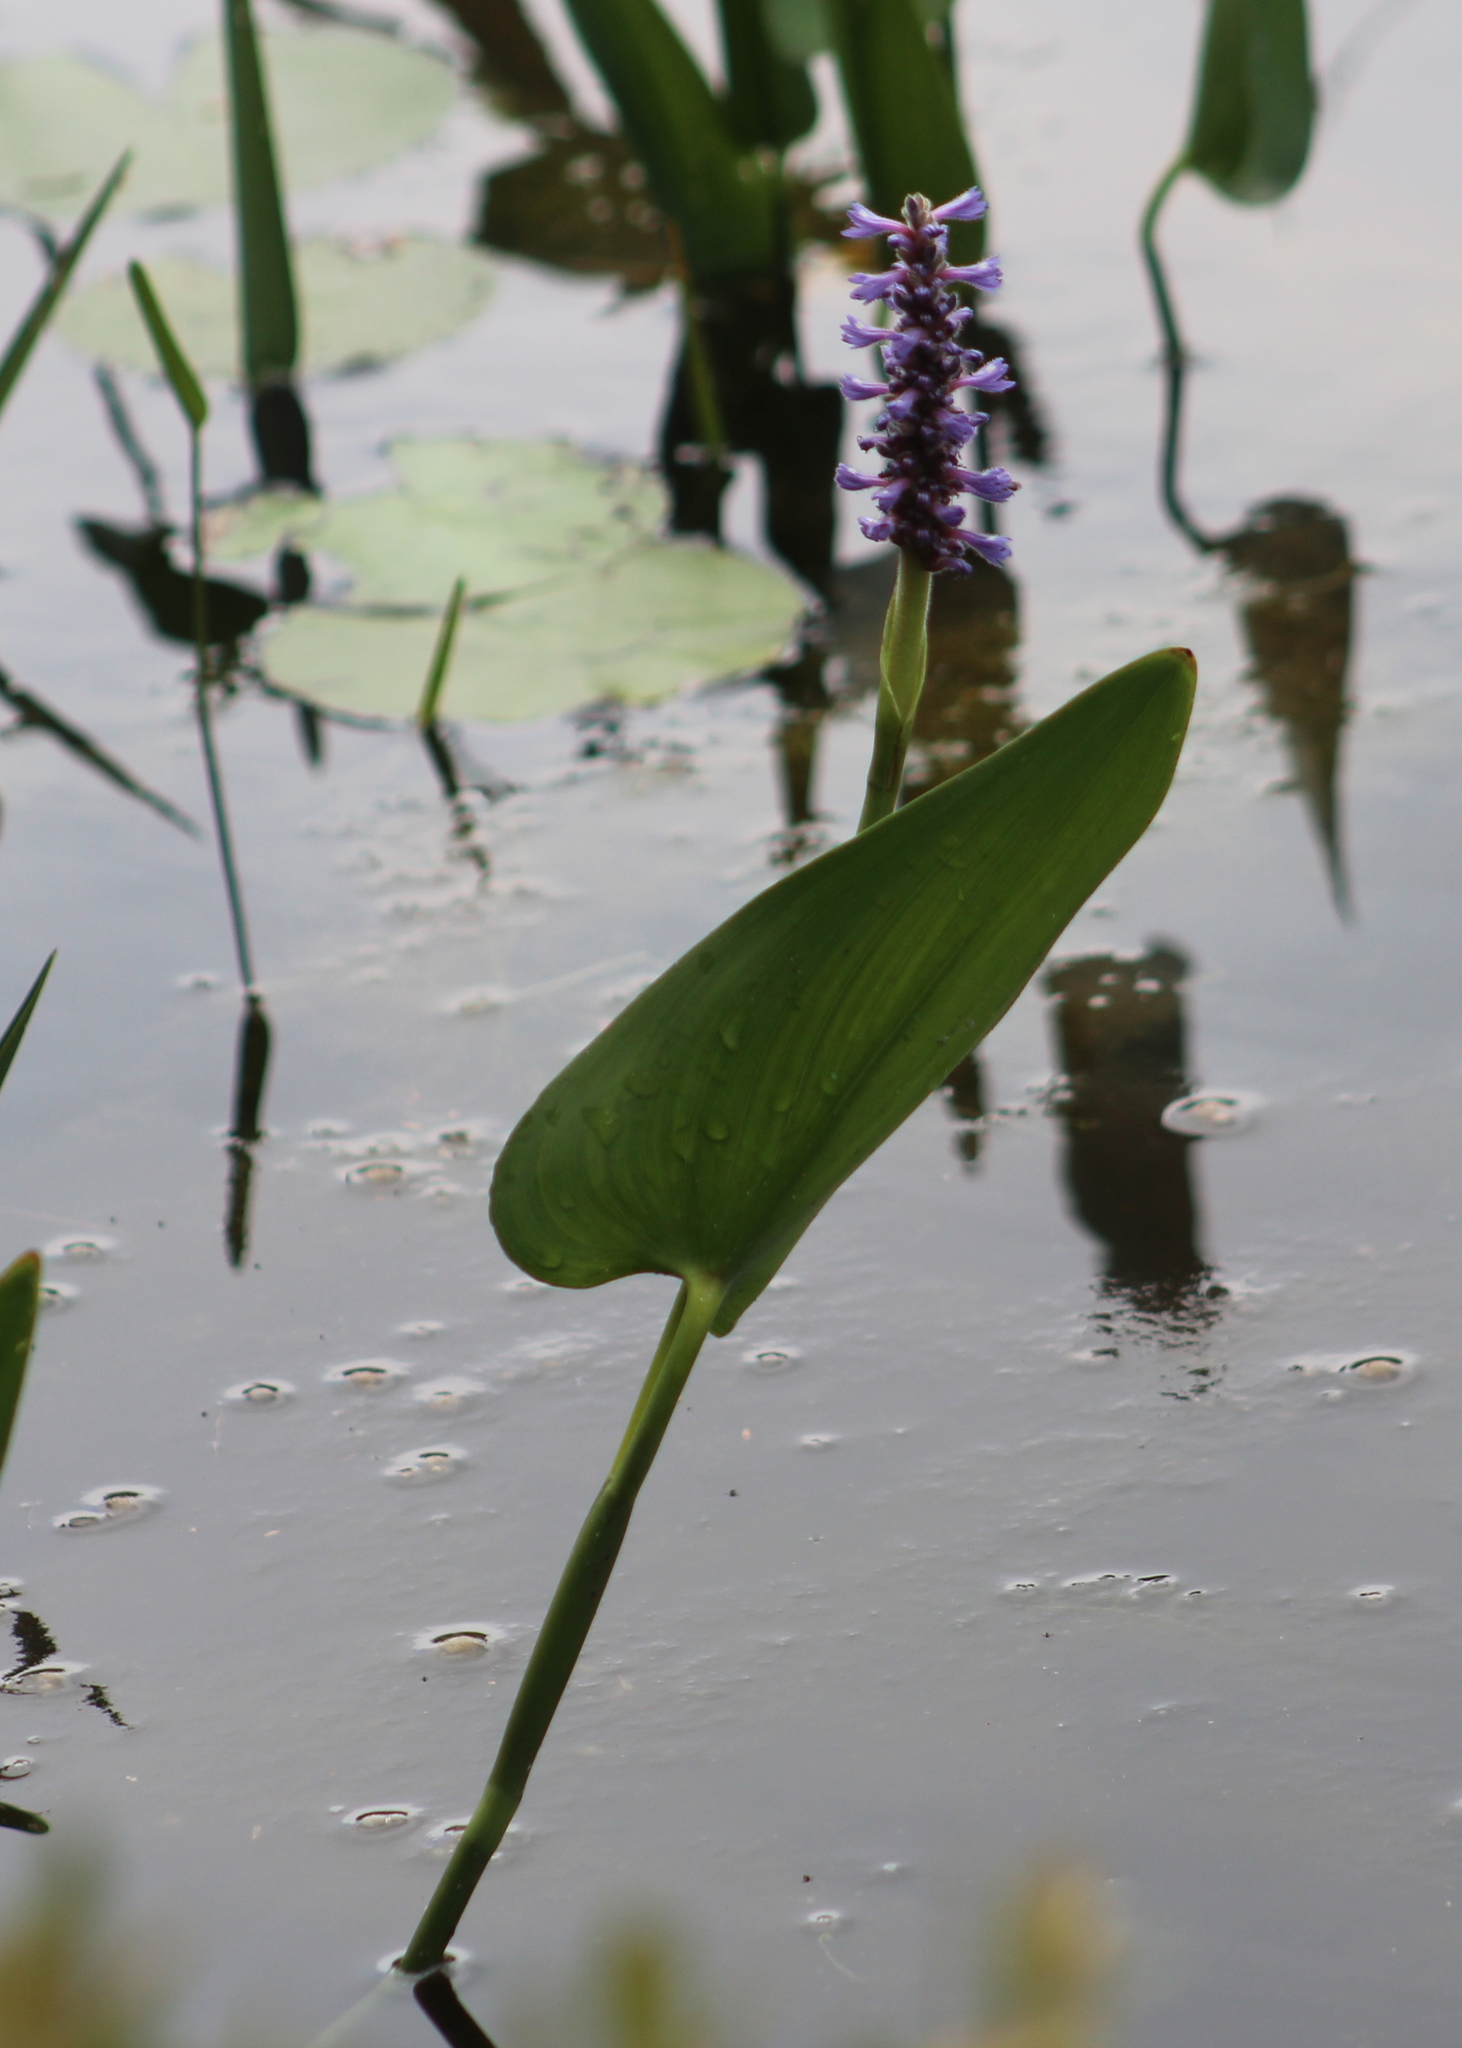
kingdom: Plantae
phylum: Tracheophyta
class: Liliopsida
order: Commelinales
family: Pontederiaceae
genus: Pontederia
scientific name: Pontederia cordata
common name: Pickerelweed
